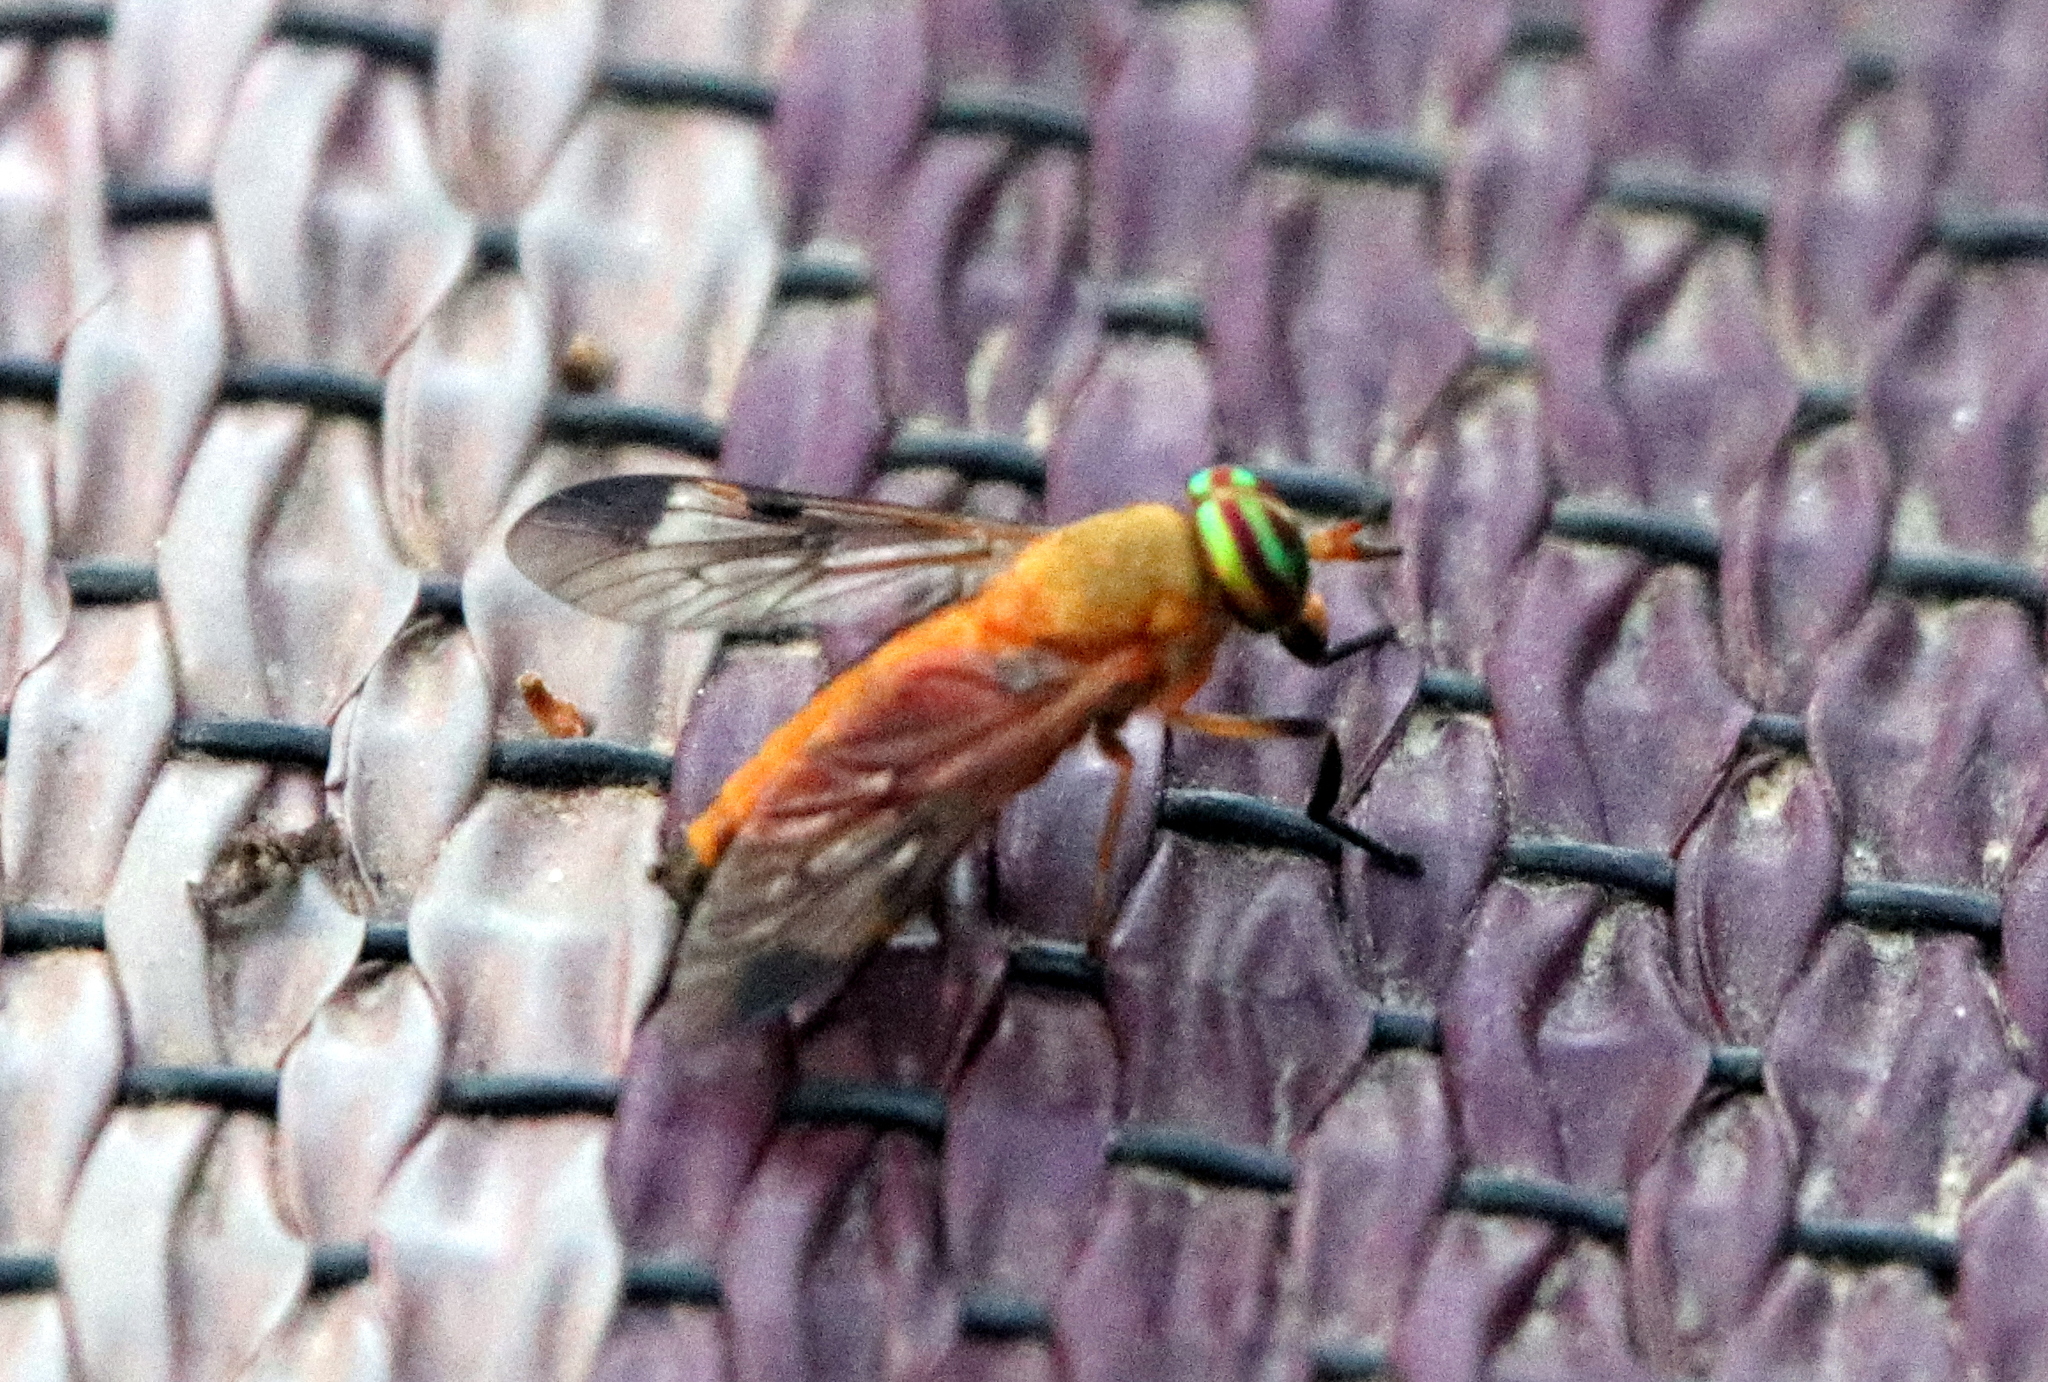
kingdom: Animalia
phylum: Arthropoda
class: Insecta
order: Diptera
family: Tabanidae
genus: Diachlorus
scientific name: Diachlorus ferrugatus
